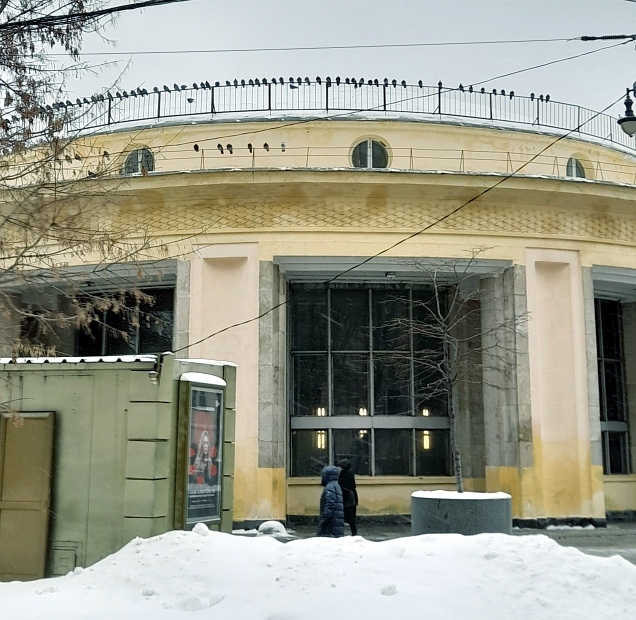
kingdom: Animalia
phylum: Chordata
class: Aves
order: Columbiformes
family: Columbidae
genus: Columba
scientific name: Columba livia
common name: Rock pigeon
